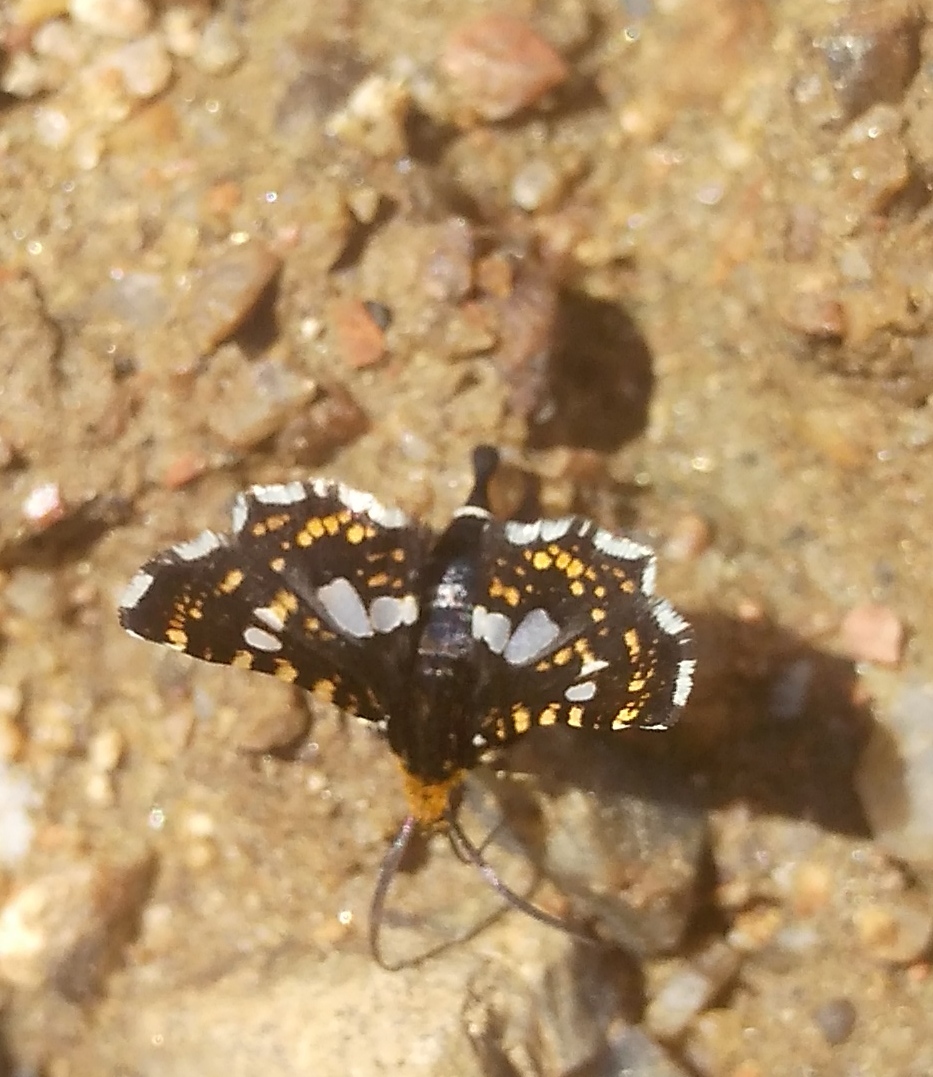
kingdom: Animalia
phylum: Arthropoda
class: Insecta
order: Lepidoptera
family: Thyrididae
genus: Thyris
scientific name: Thyris fenestrella
